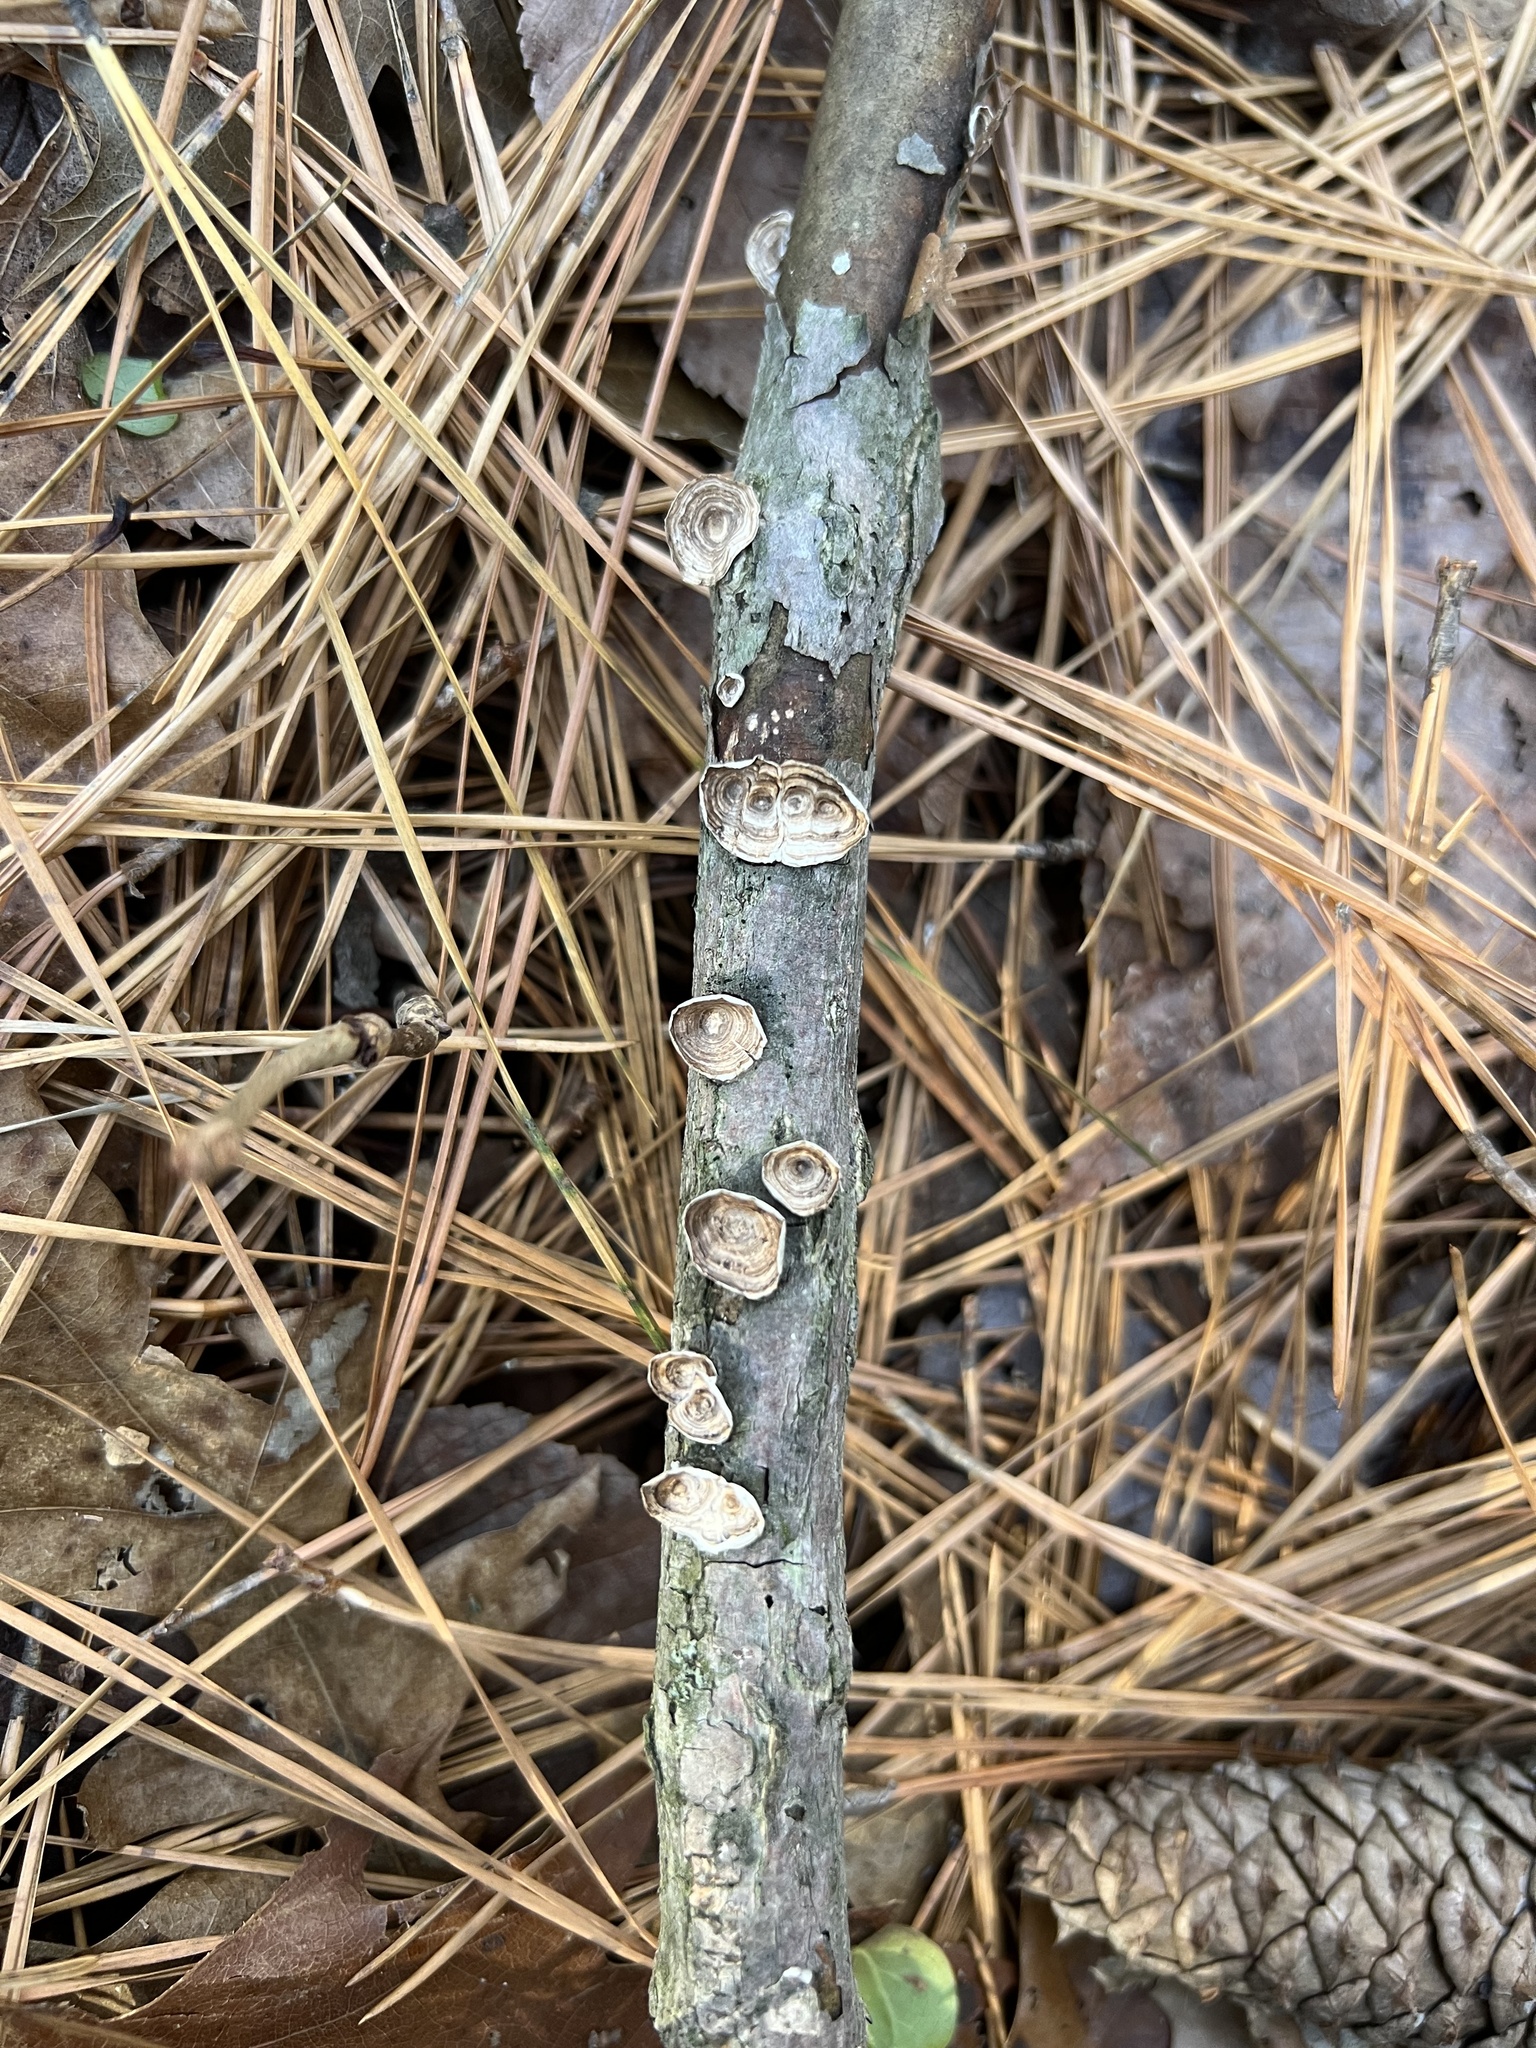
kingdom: Fungi
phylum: Basidiomycota
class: Agaricomycetes
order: Polyporales
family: Polyporaceae
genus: Poronidulus
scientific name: Poronidulus conchifer
